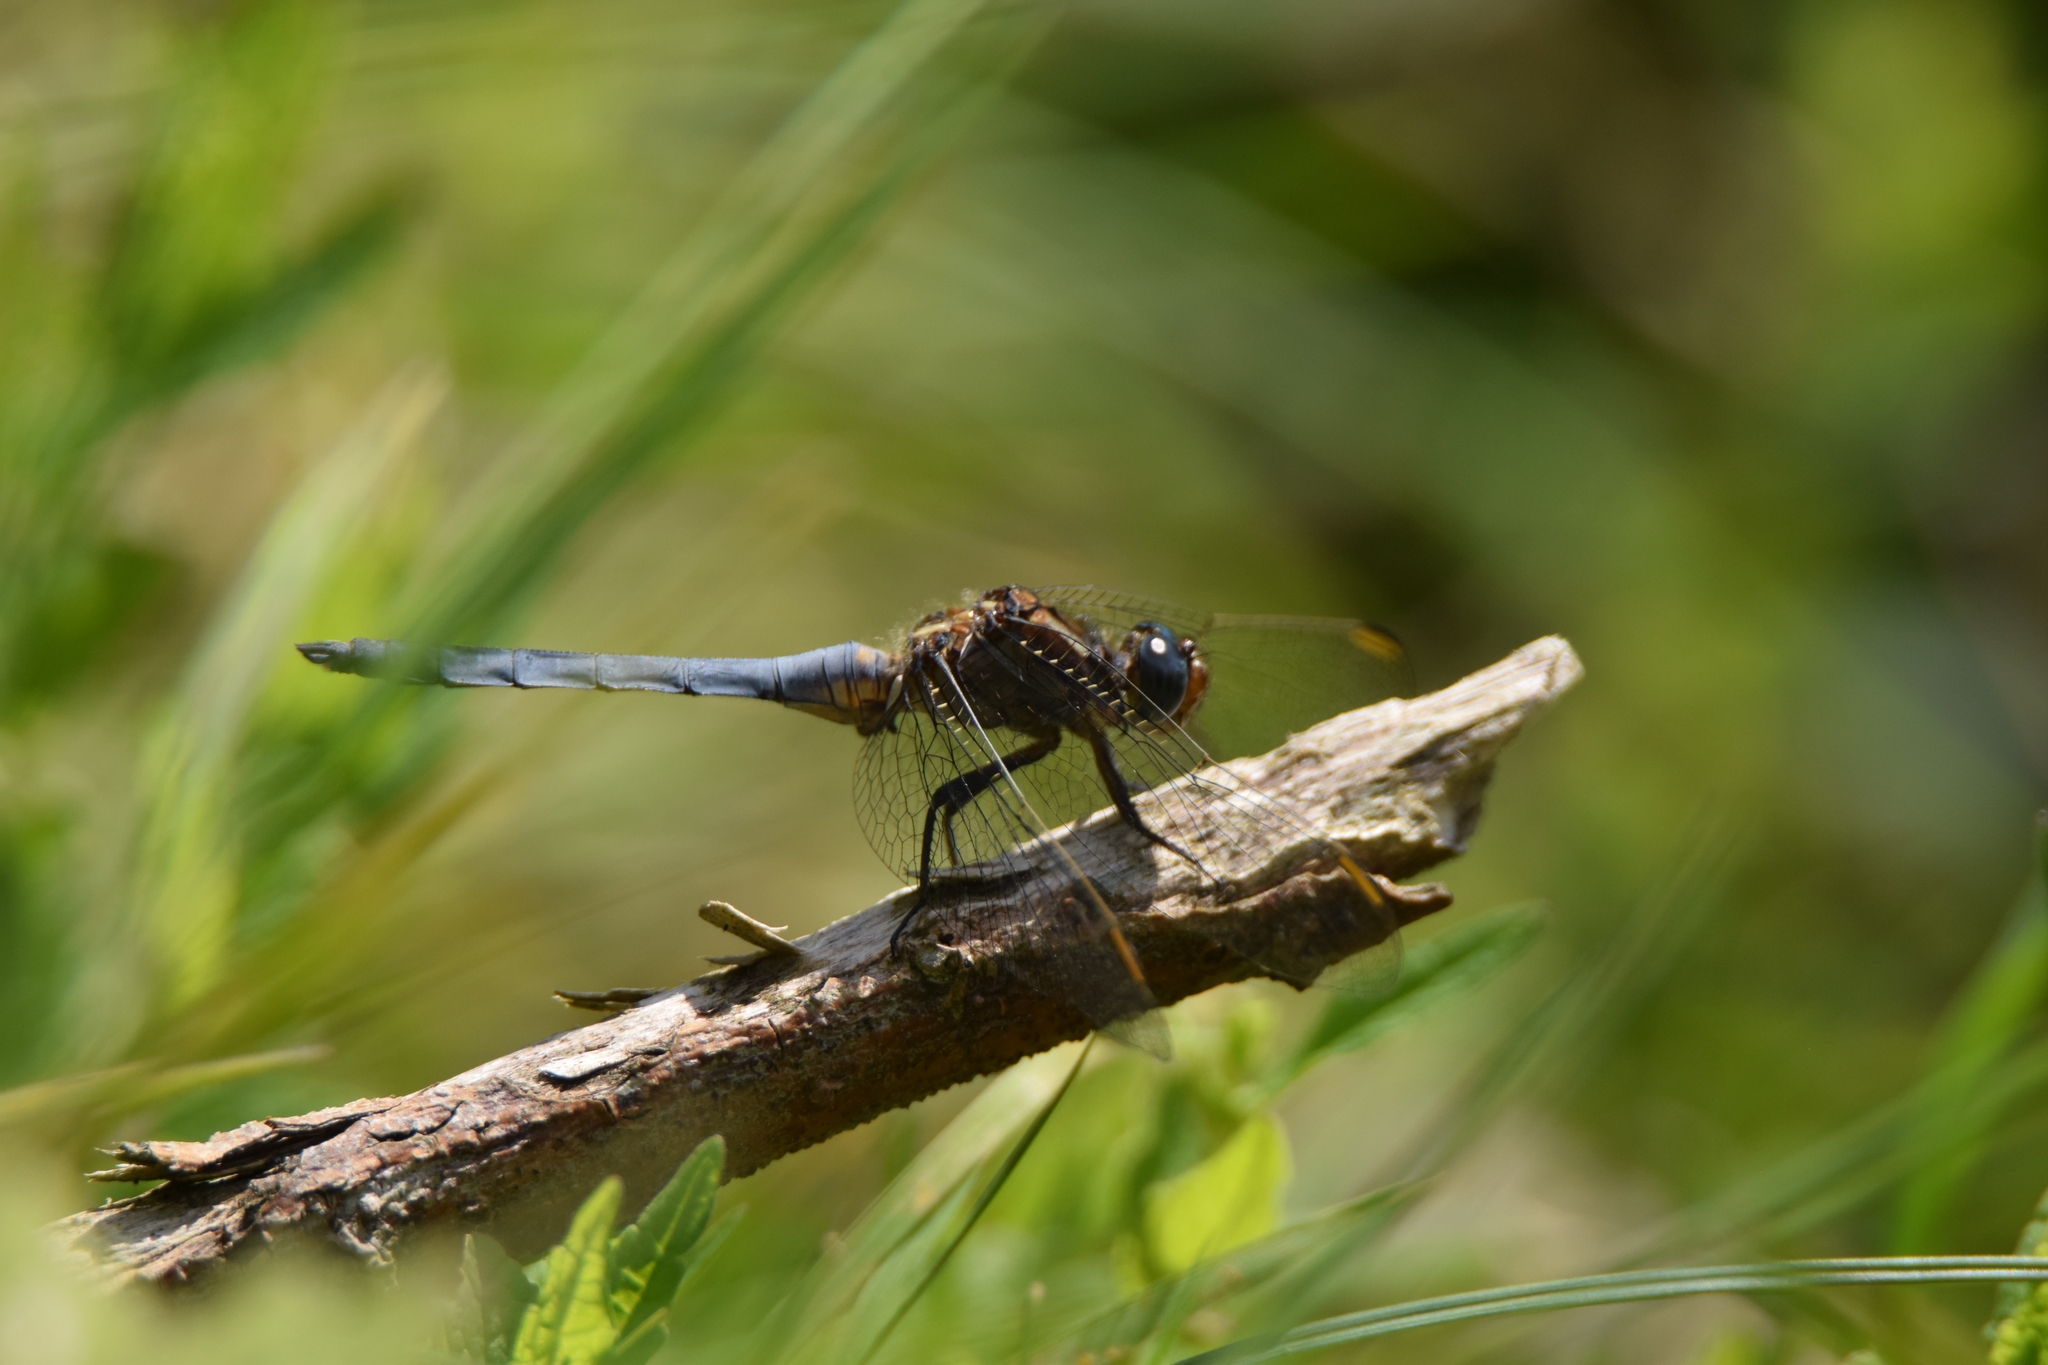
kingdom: Animalia
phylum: Arthropoda
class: Insecta
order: Odonata
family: Libellulidae
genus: Orthetrum
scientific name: Orthetrum coerulescens
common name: Keeled skimmer
